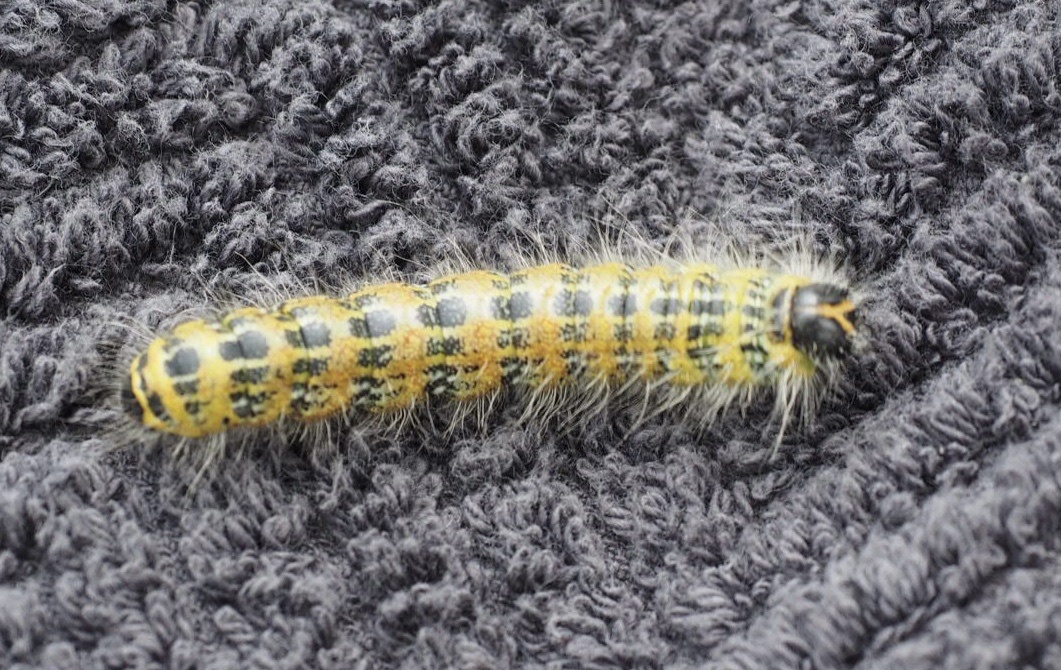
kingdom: Animalia
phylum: Arthropoda
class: Insecta
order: Lepidoptera
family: Notodontidae
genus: Phalera
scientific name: Phalera bucephala
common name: Buff-tip
